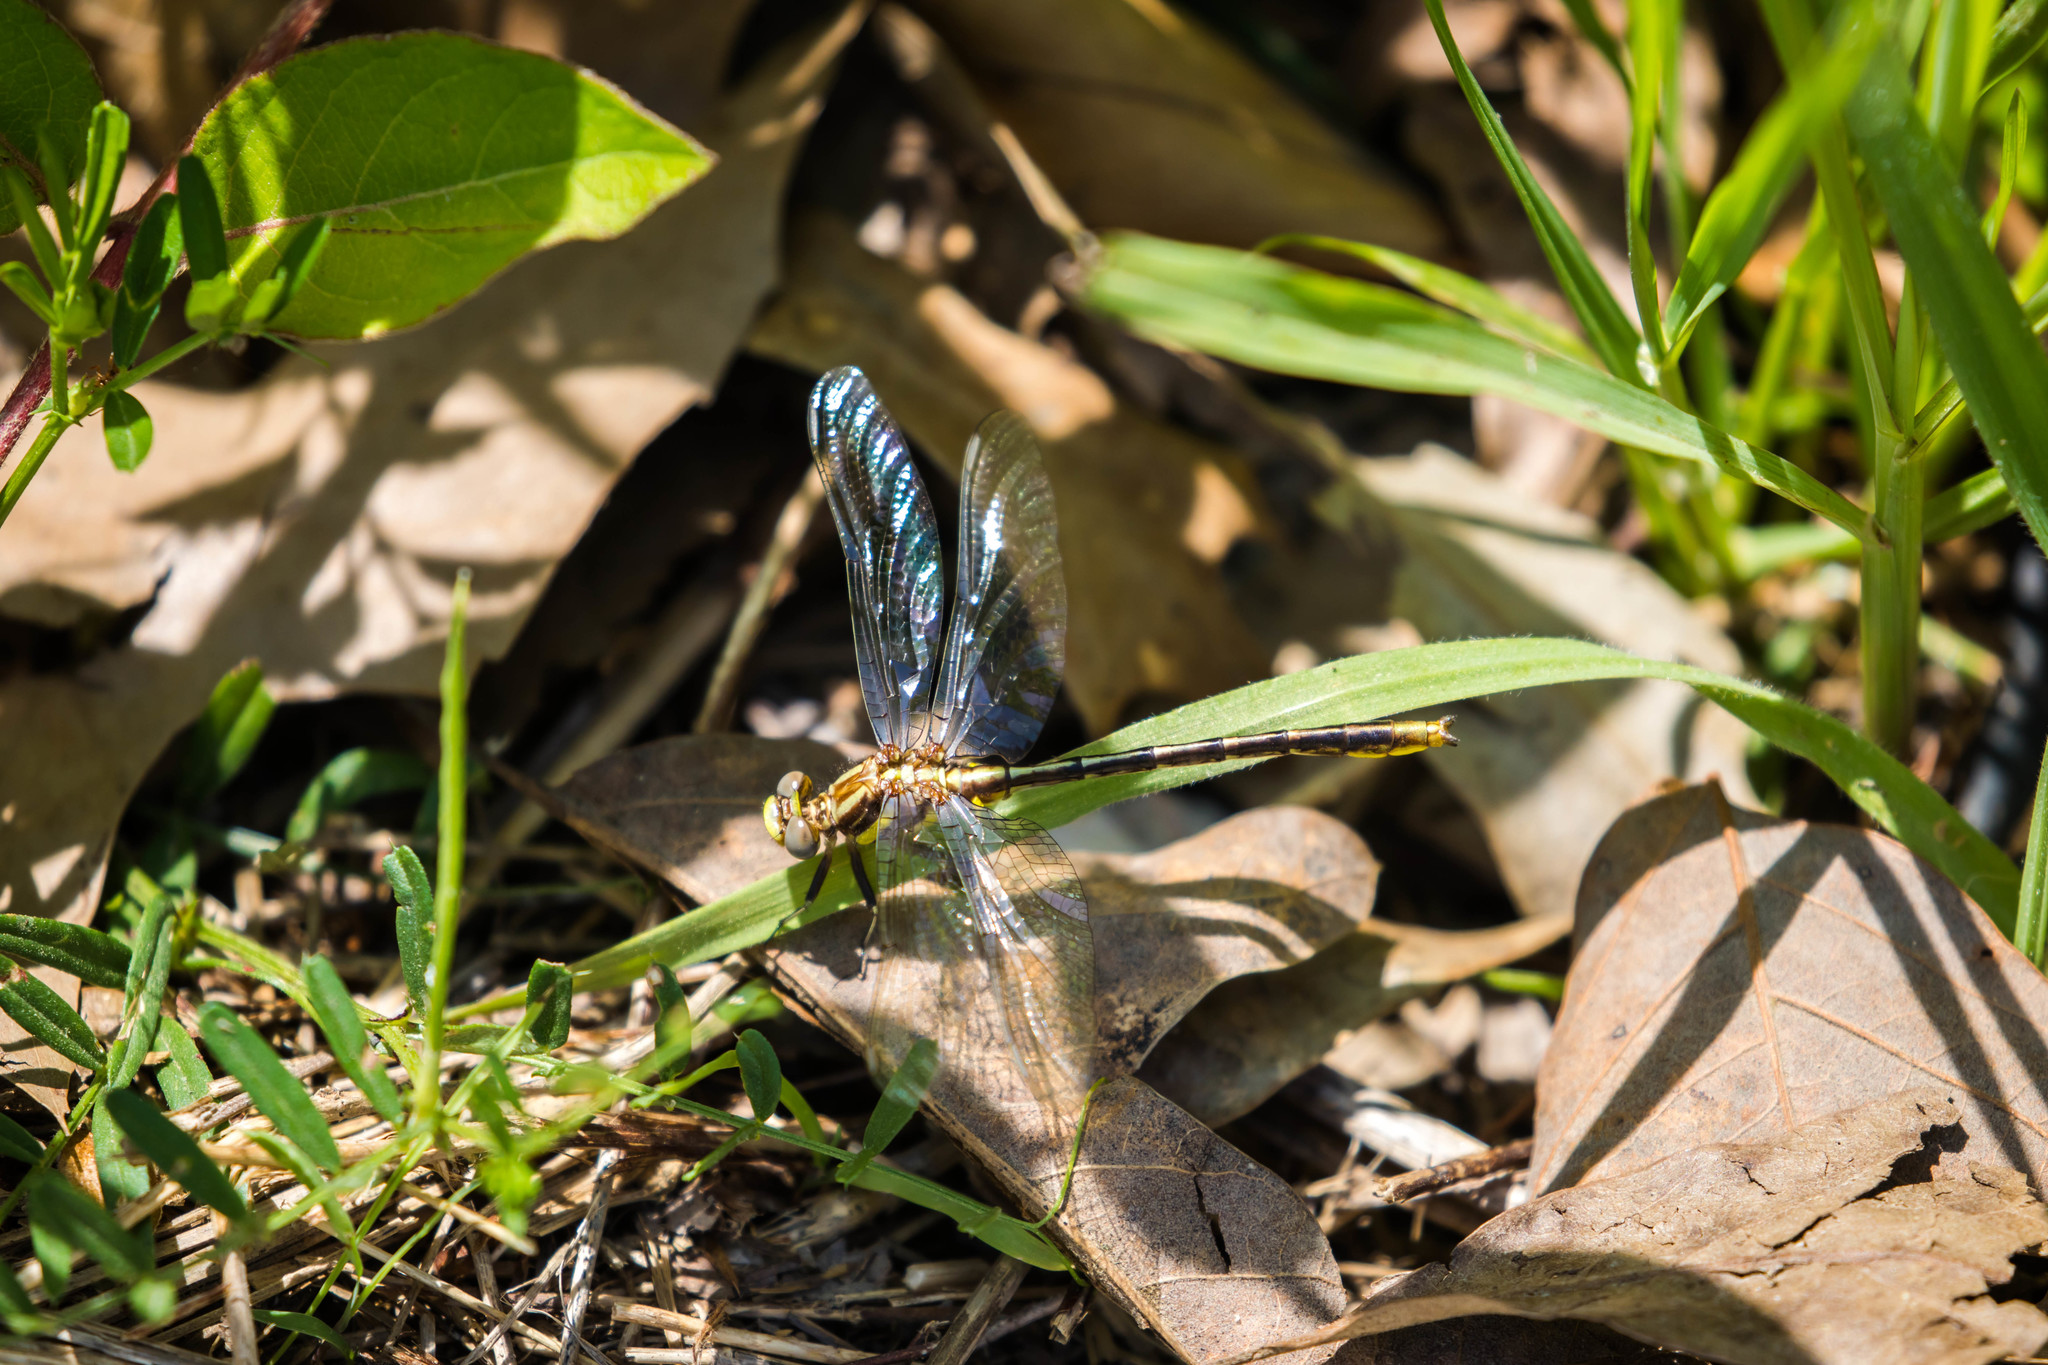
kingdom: Animalia
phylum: Arthropoda
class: Insecta
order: Odonata
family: Gomphidae
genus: Phanogomphus
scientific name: Phanogomphus exilis
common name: Lancet clubtail
